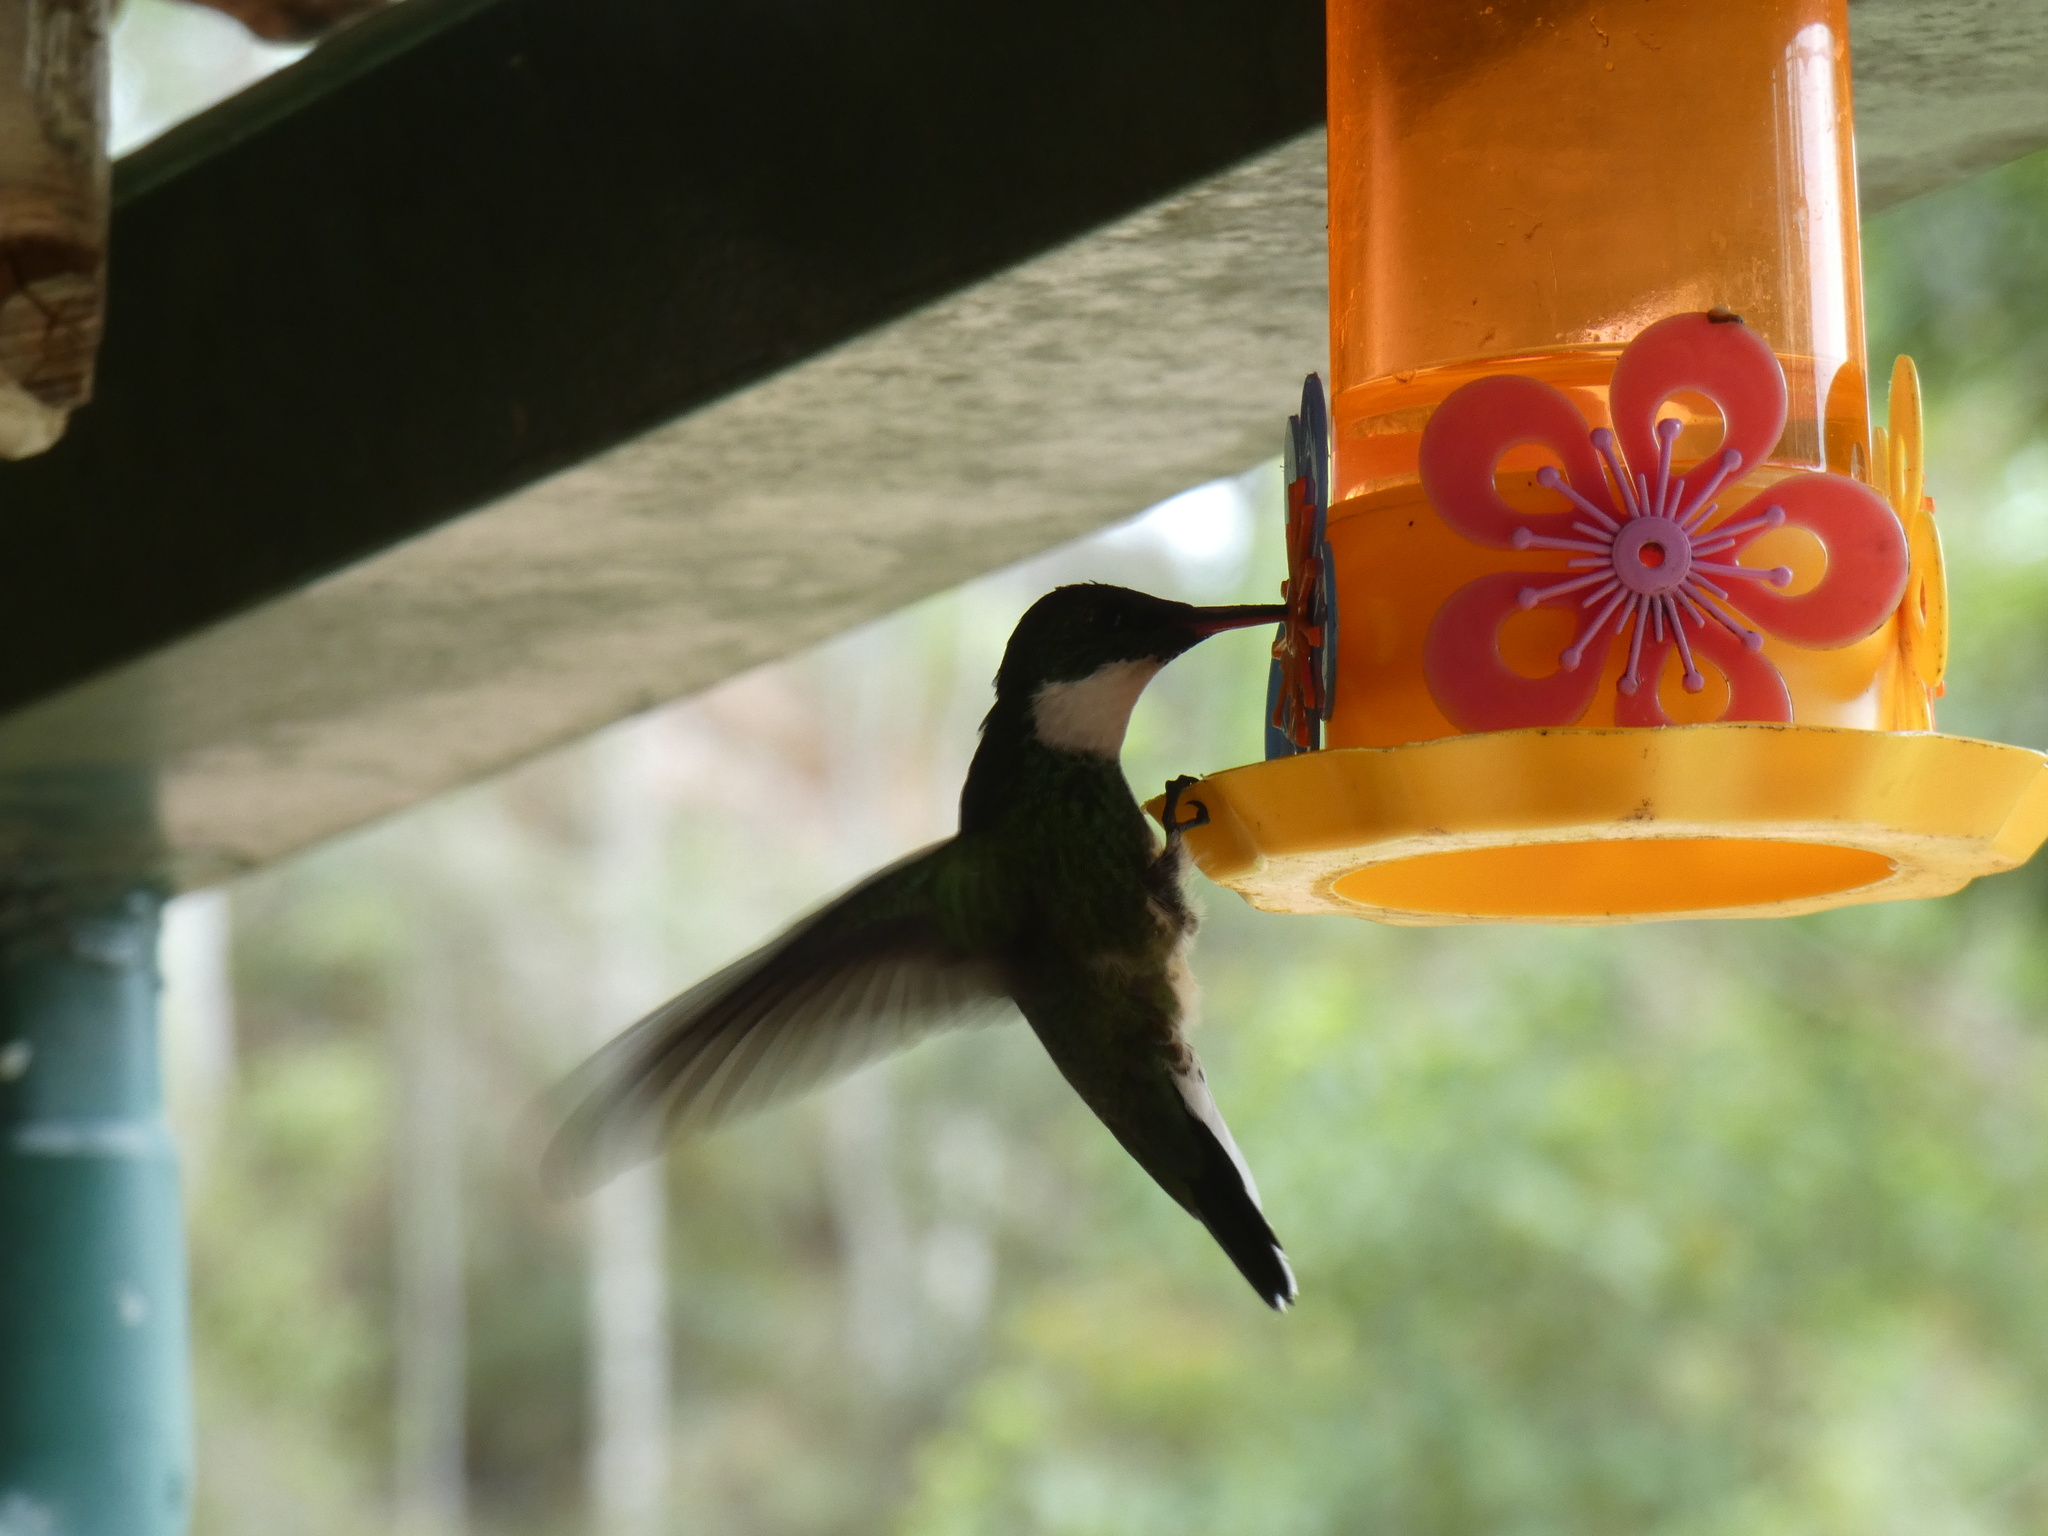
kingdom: Animalia
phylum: Chordata
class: Aves
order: Apodiformes
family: Trochilidae
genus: Leucochloris
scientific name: Leucochloris albicollis
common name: White-throated hummingbird
